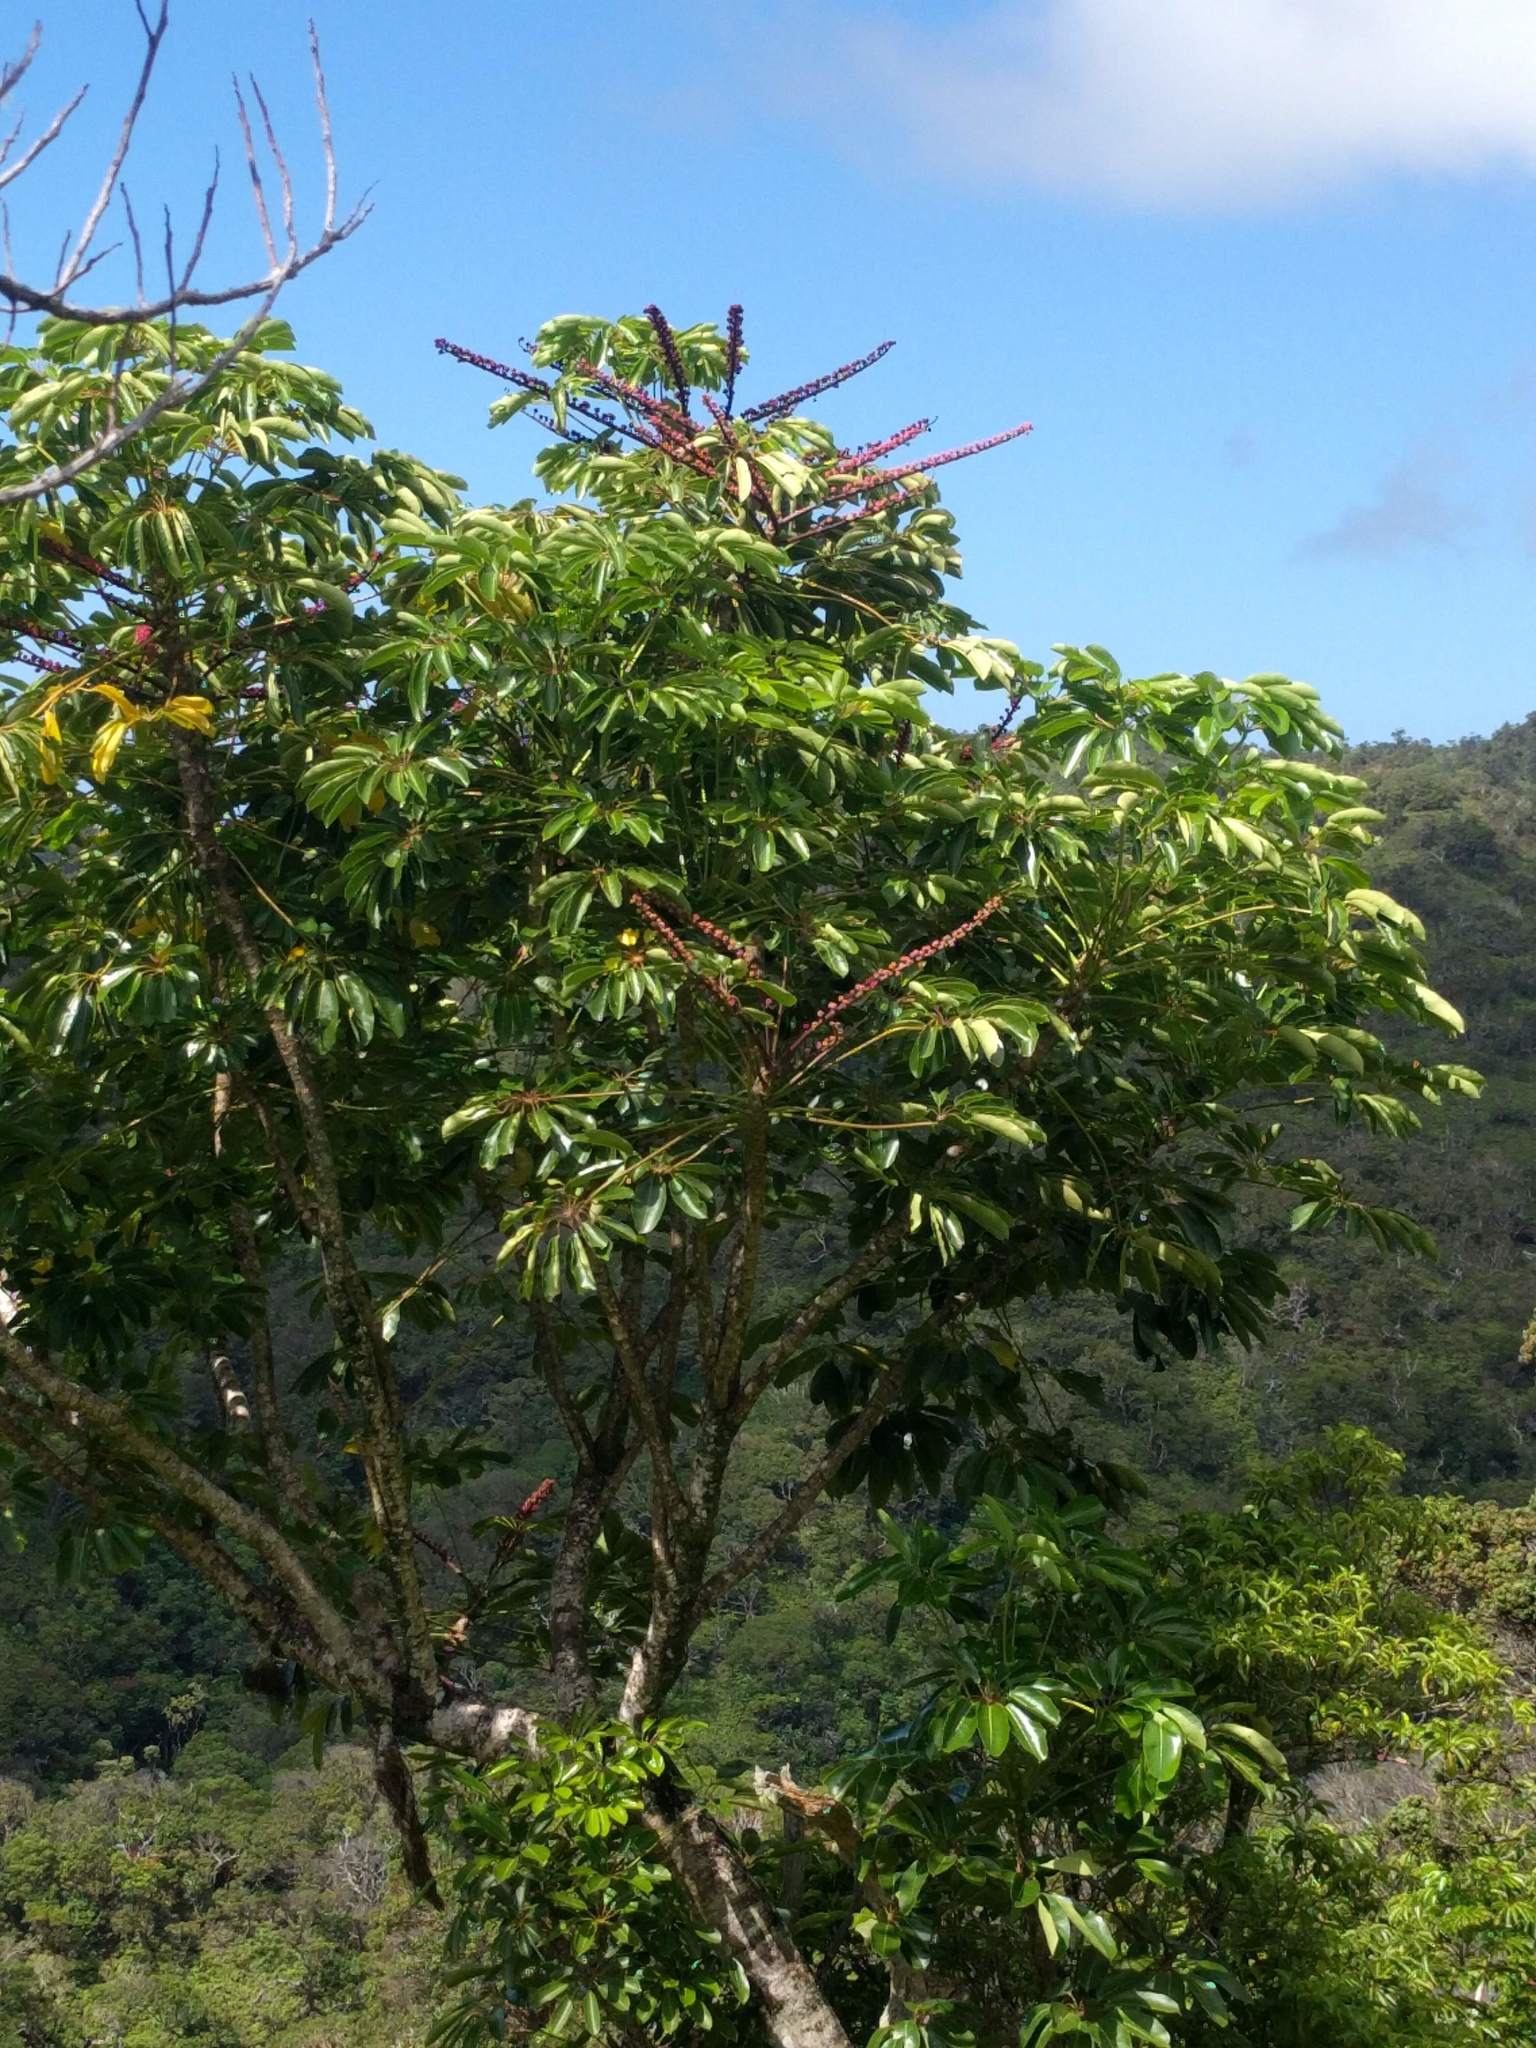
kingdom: Plantae
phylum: Tracheophyta
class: Magnoliopsida
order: Apiales
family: Araliaceae
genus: Heptapleurum
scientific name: Heptapleurum actinophyllum
